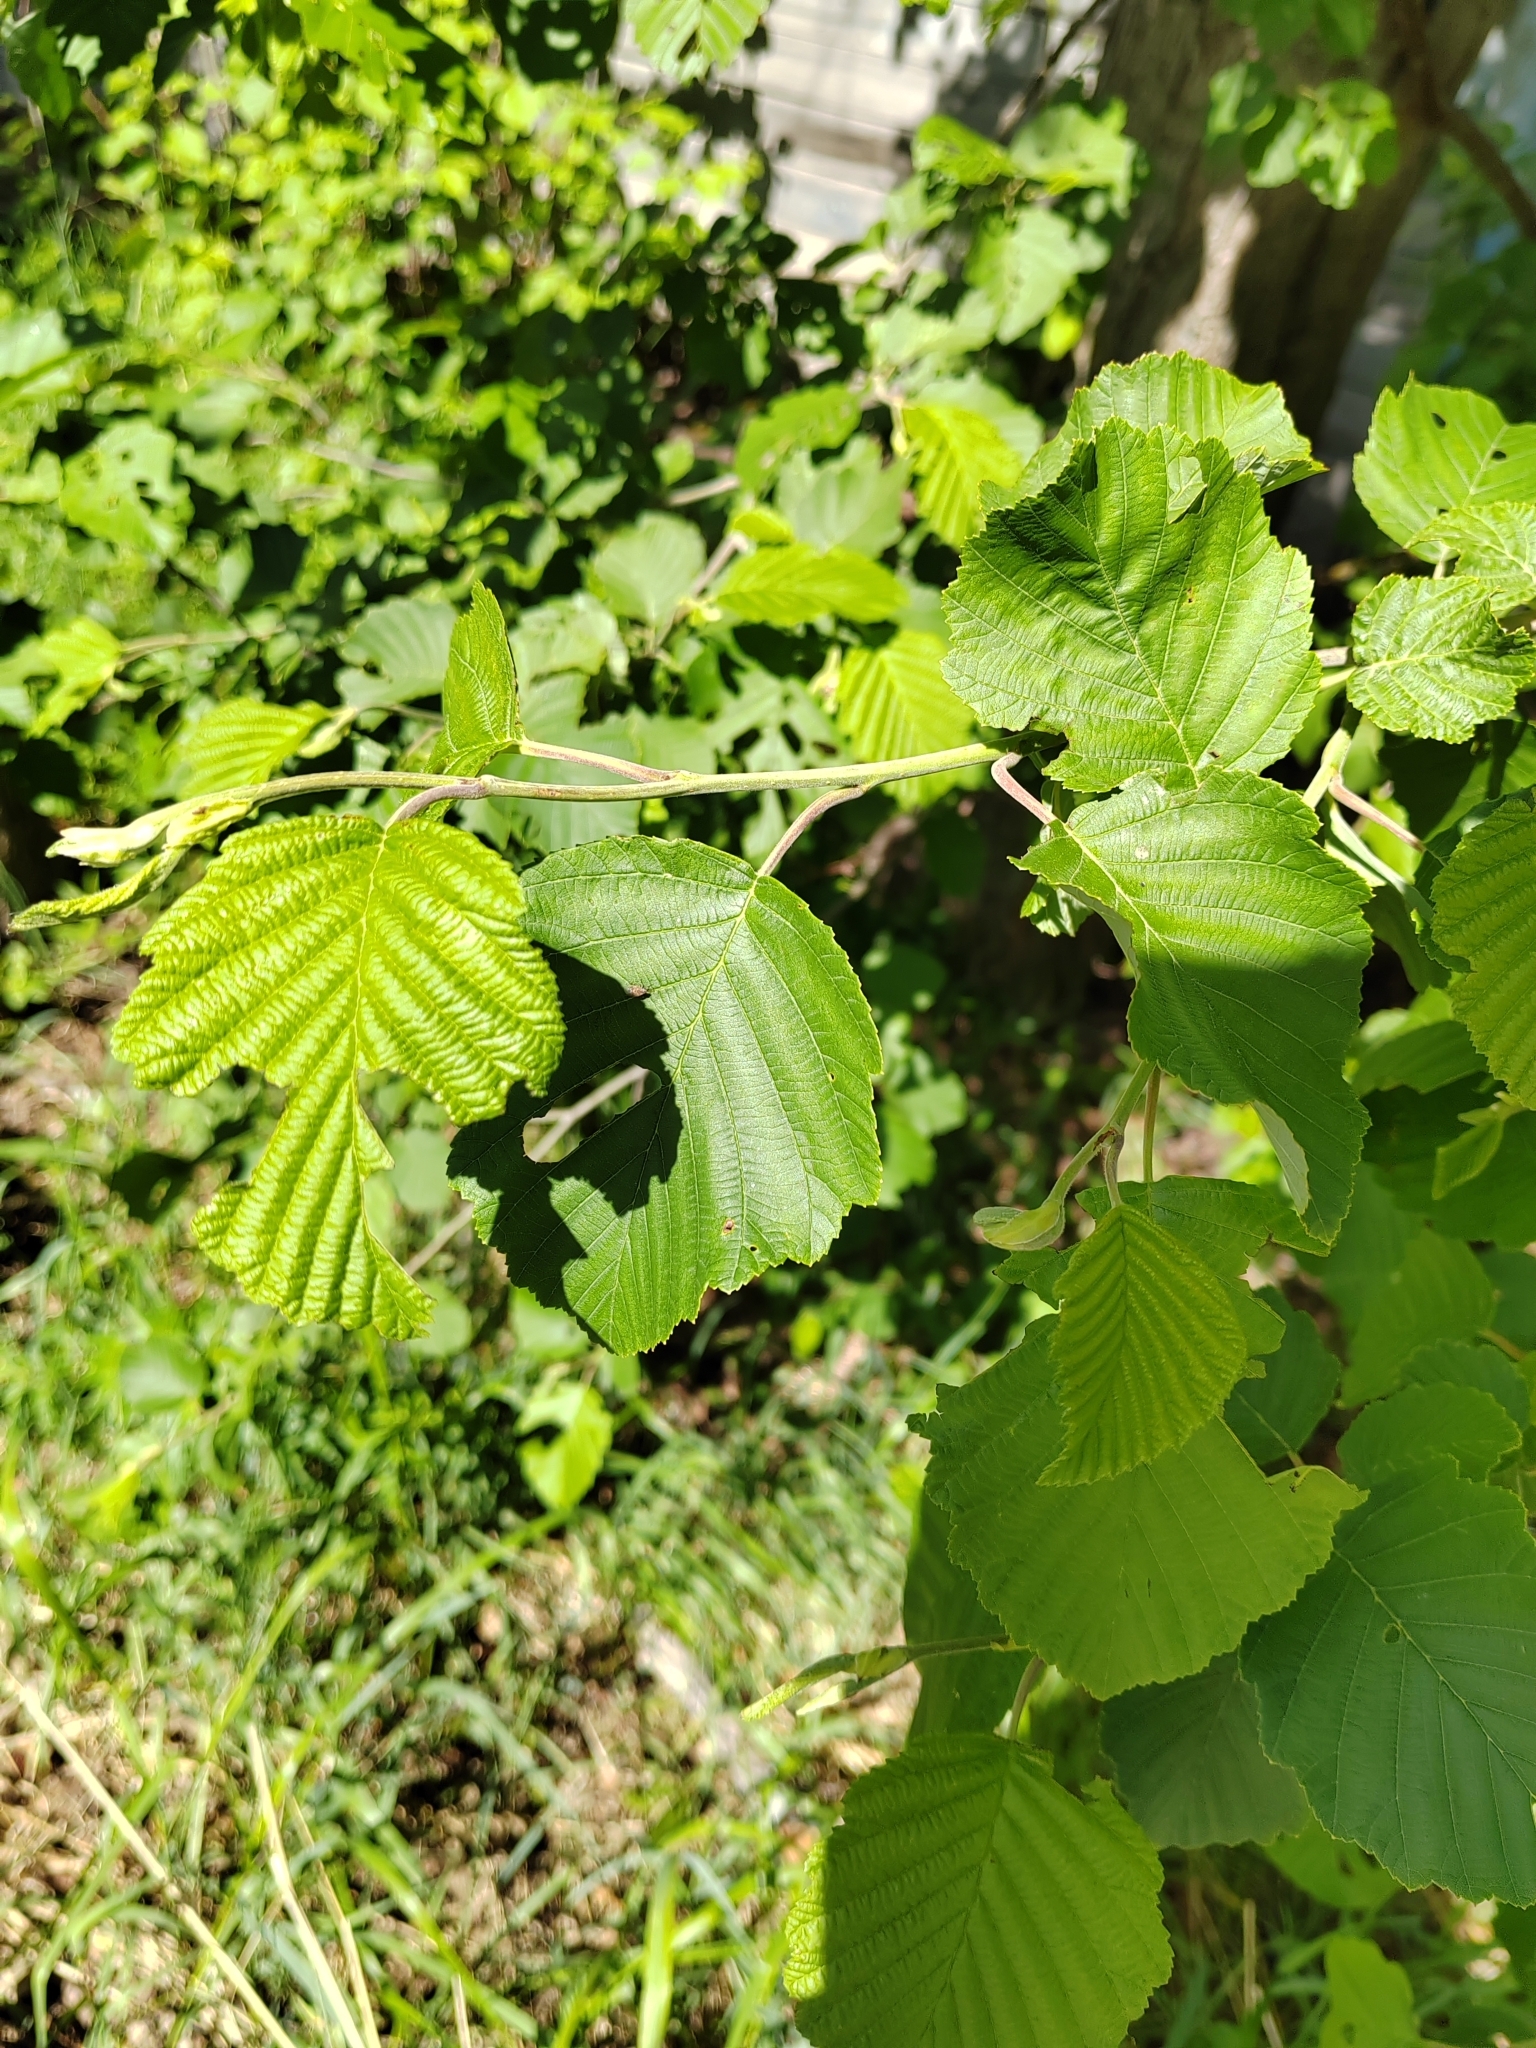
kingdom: Plantae
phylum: Tracheophyta
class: Magnoliopsida
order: Fagales
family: Betulaceae
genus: Alnus
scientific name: Alnus incana
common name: Grey alder
